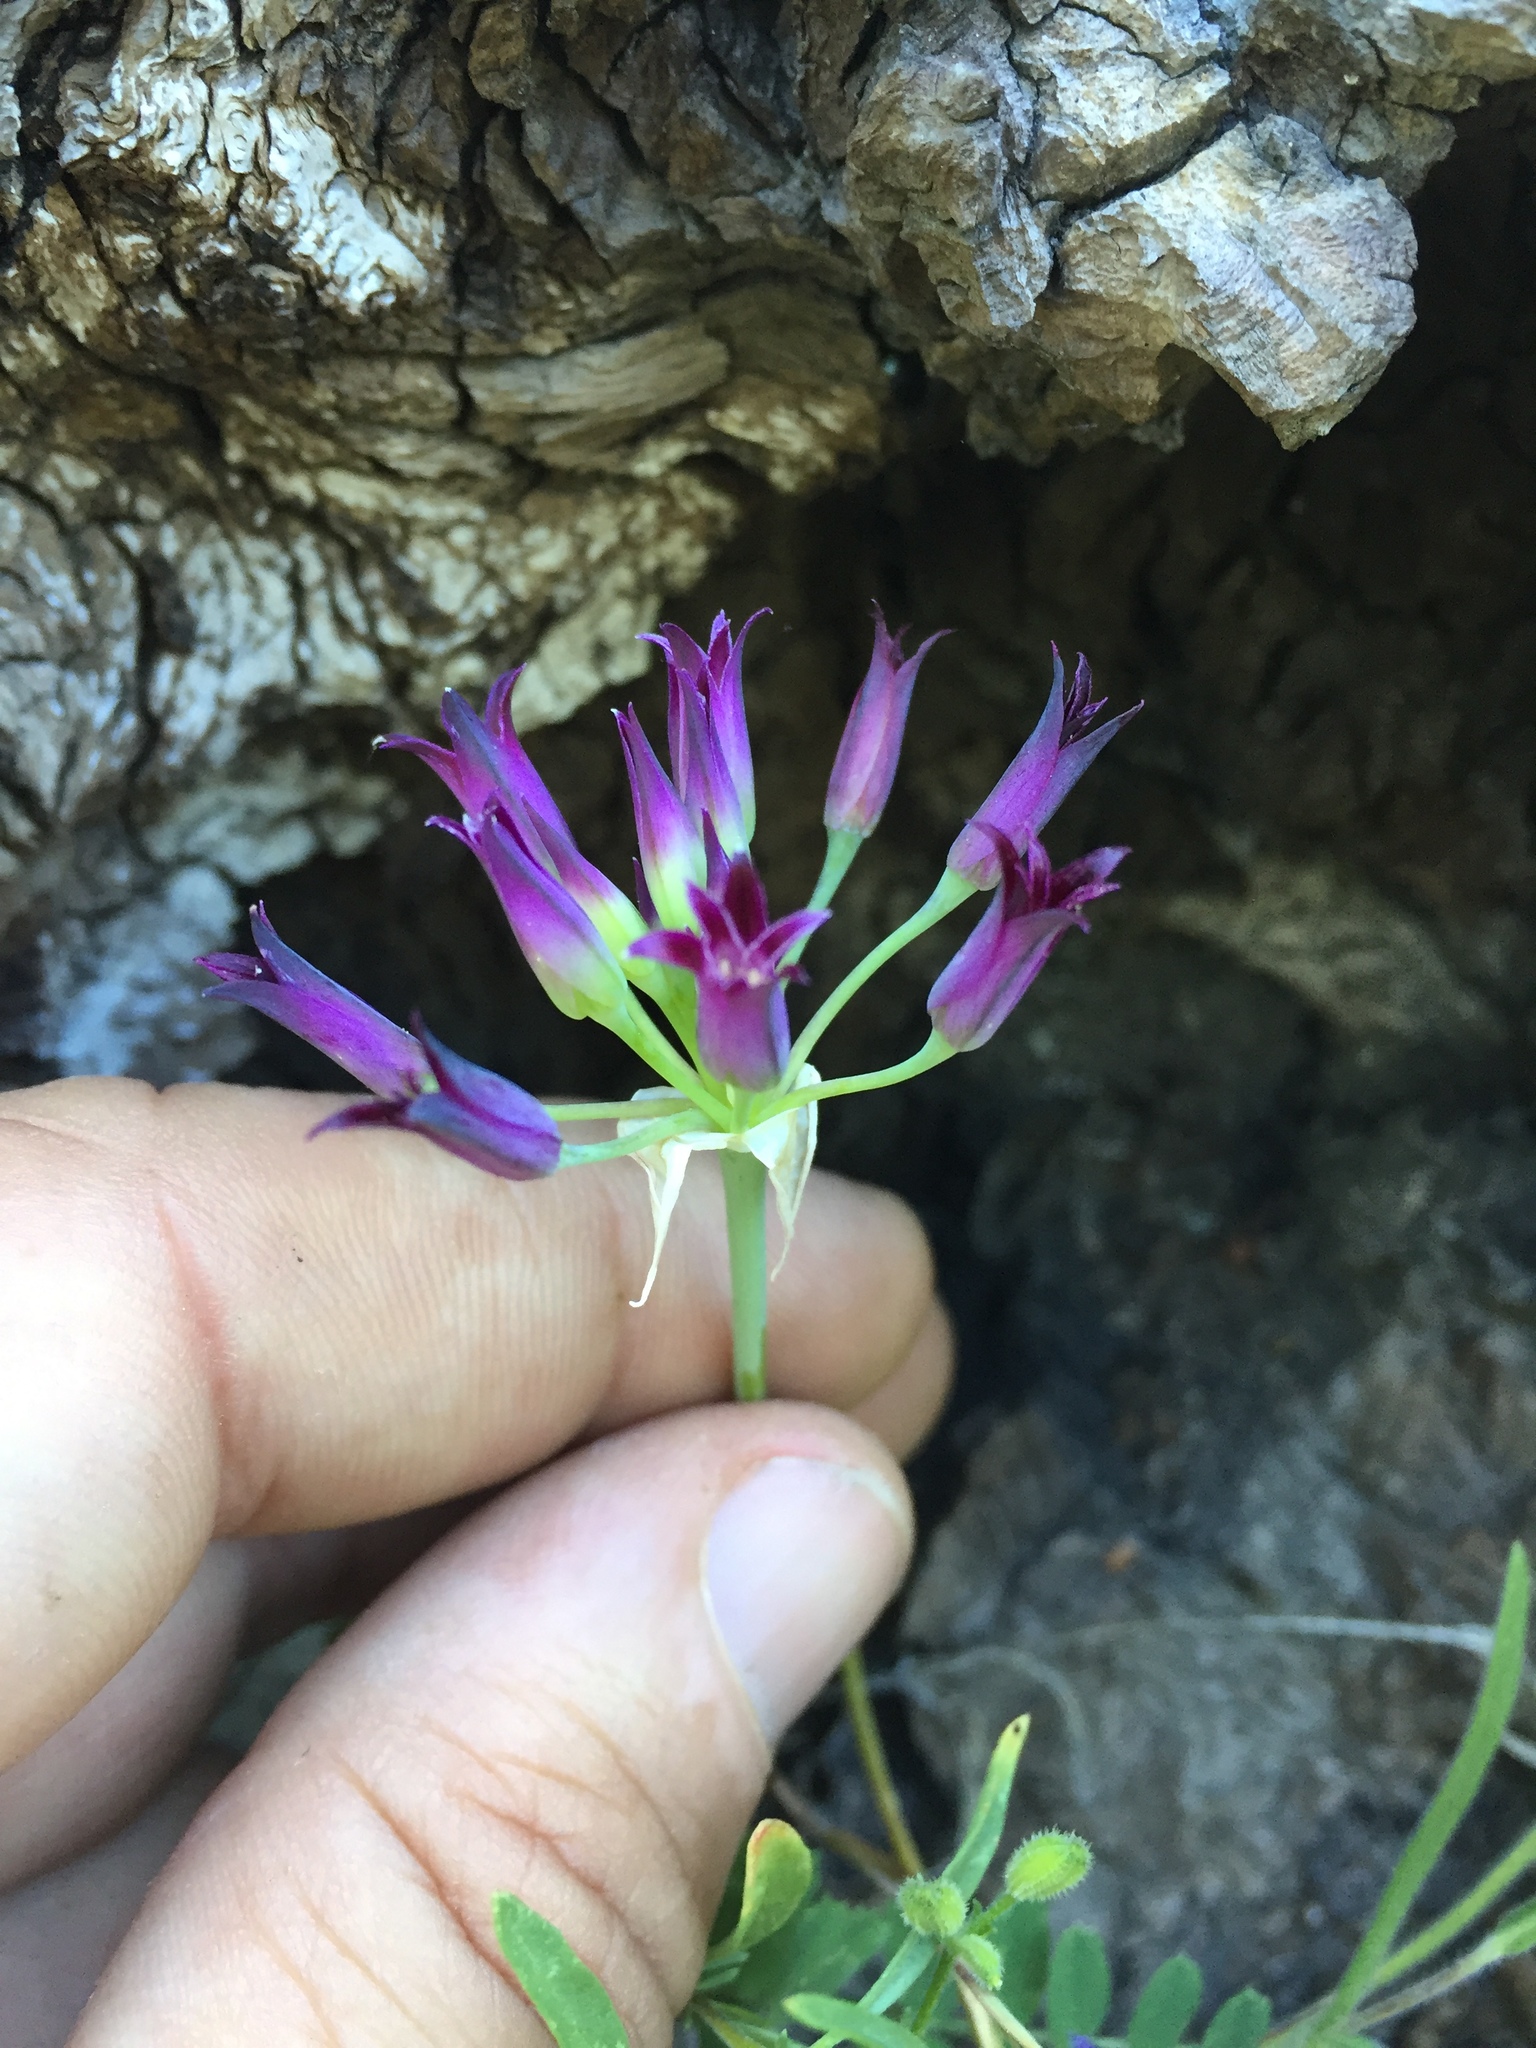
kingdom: Plantae
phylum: Tracheophyta
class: Liliopsida
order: Asparagales
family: Amaryllidaceae
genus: Allium
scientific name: Allium bolanderi
